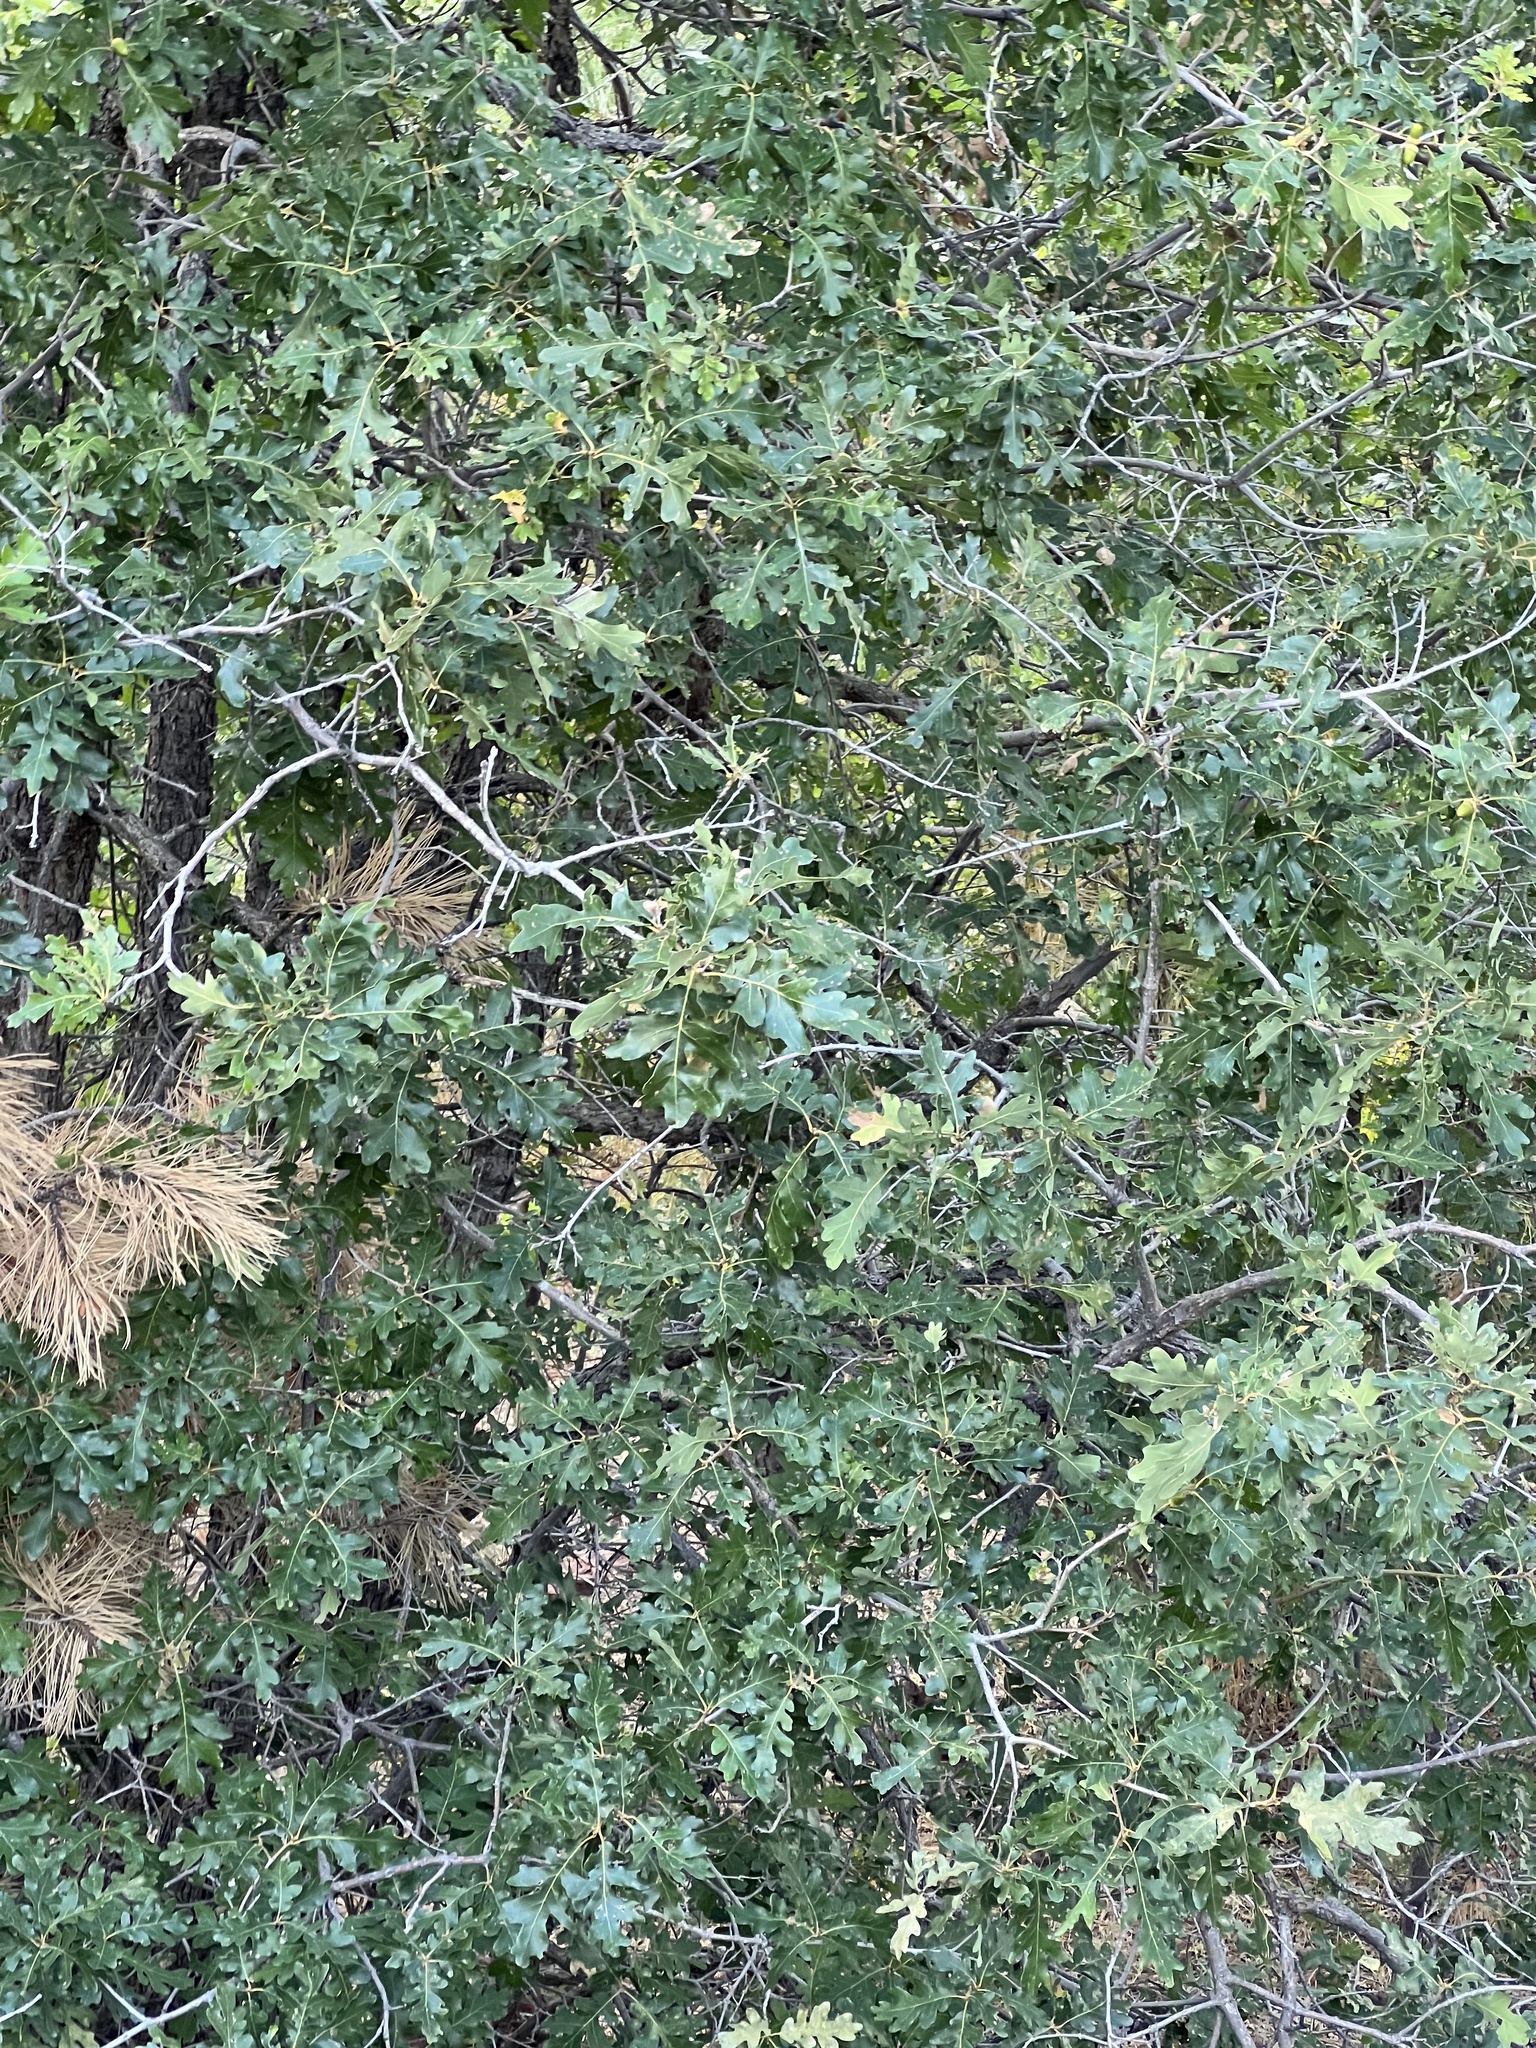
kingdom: Plantae
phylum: Tracheophyta
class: Magnoliopsida
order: Fagales
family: Fagaceae
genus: Quercus
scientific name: Quercus gambelii
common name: Gambel oak
